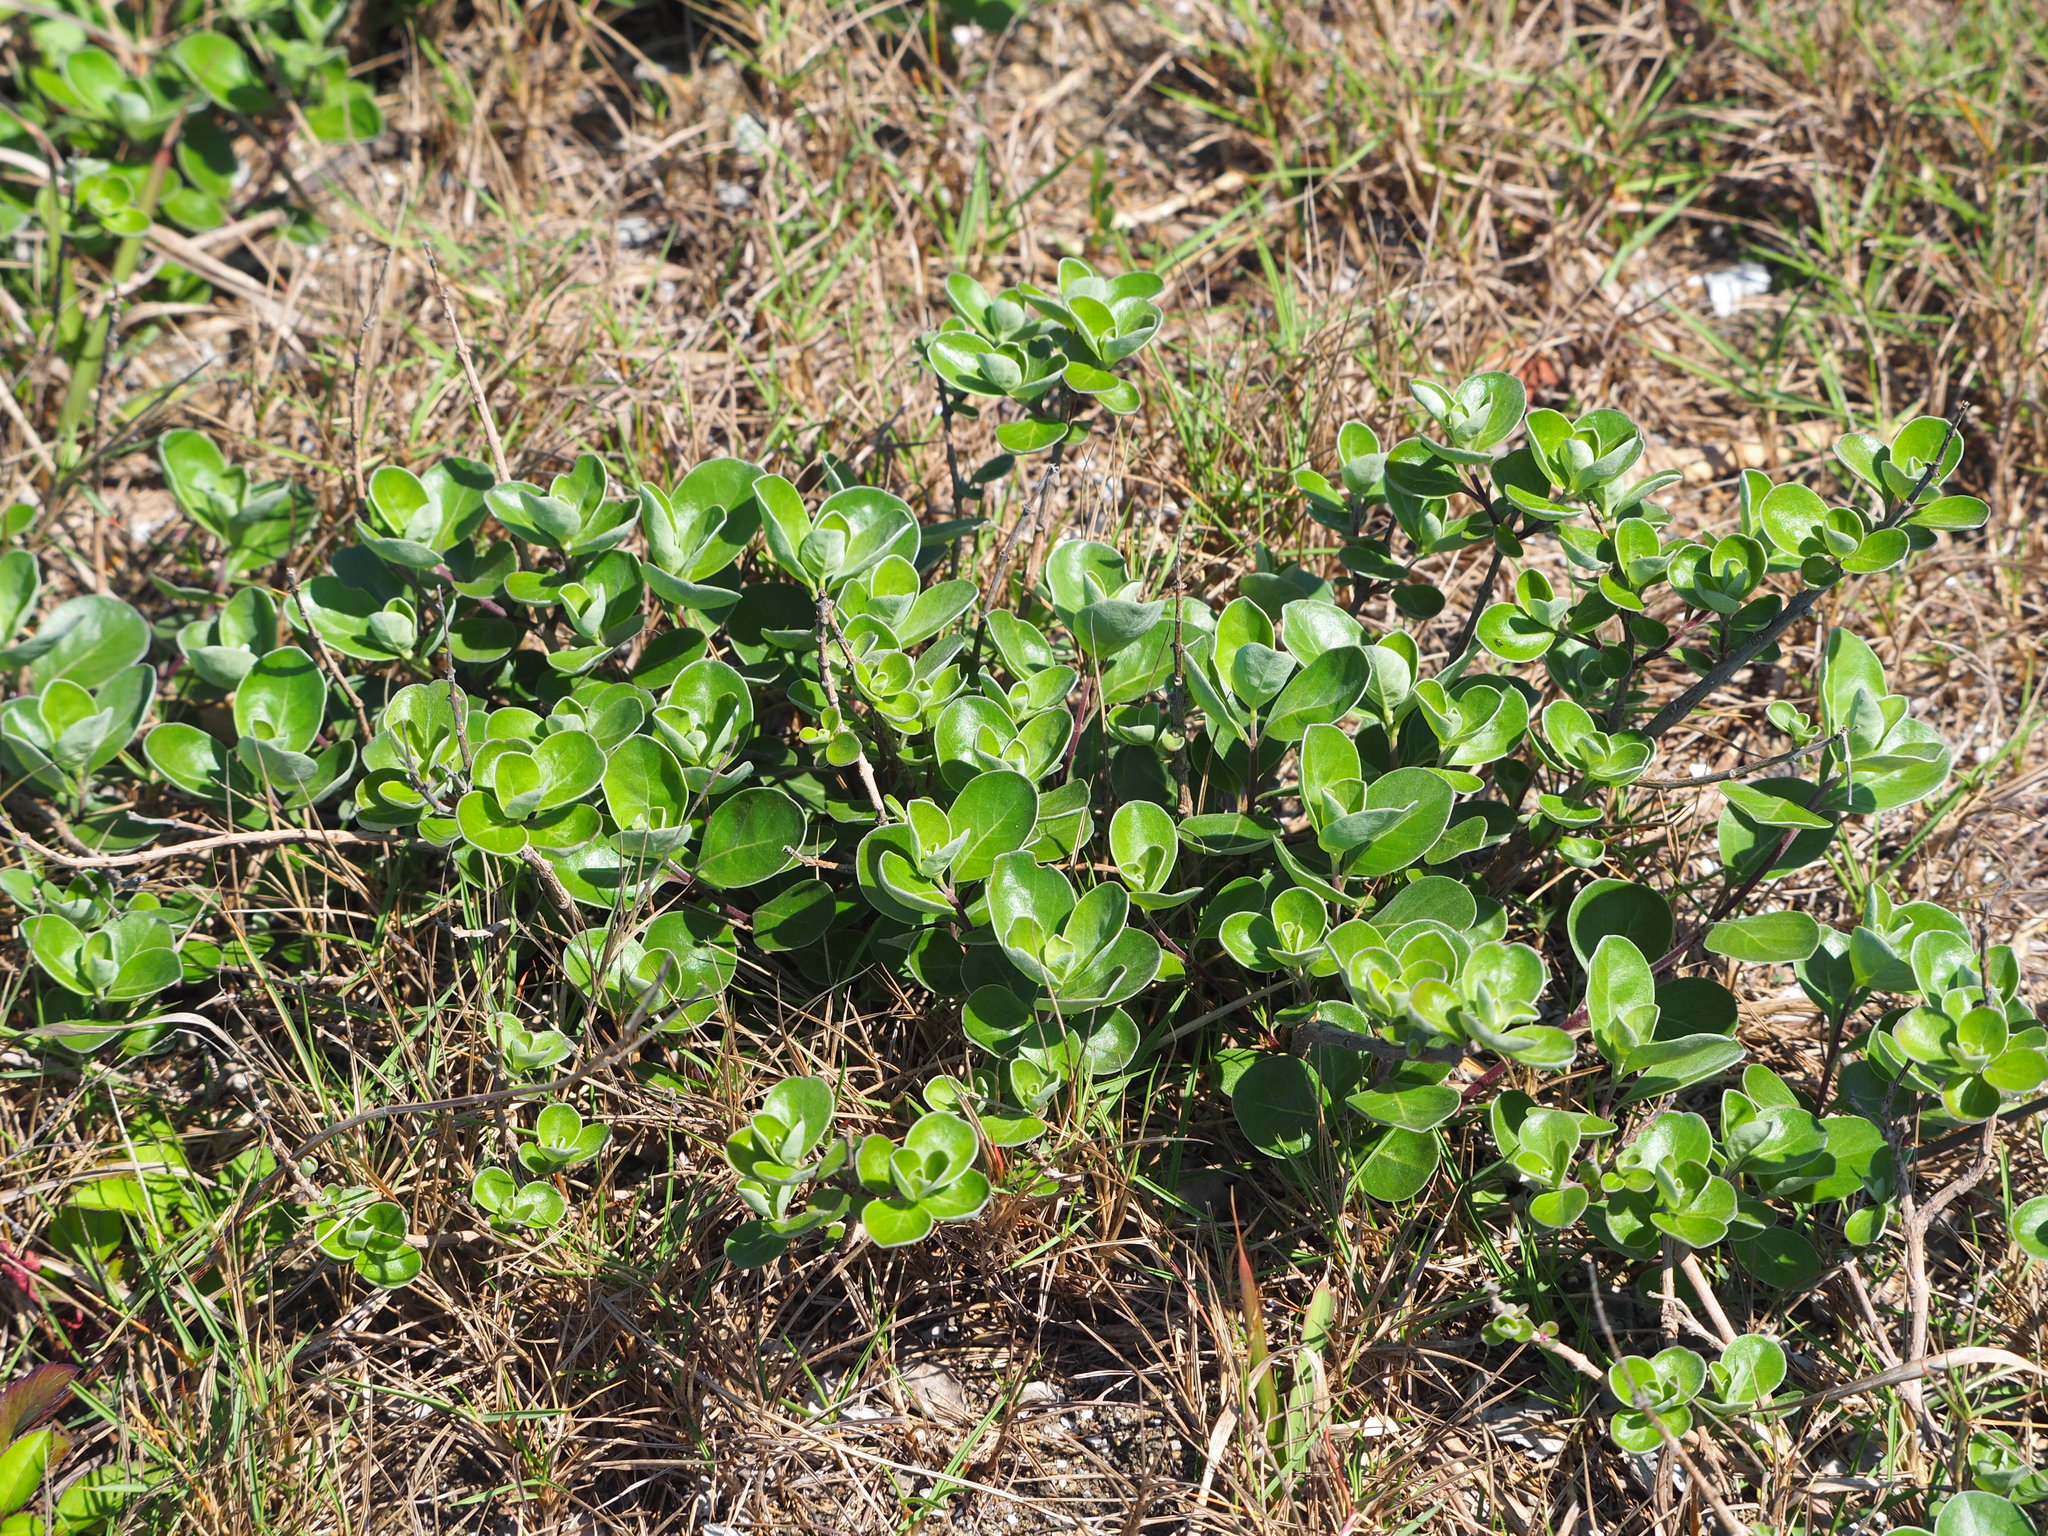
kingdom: Plantae
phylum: Tracheophyta
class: Magnoliopsida
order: Lamiales
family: Lamiaceae
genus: Vitex
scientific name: Vitex rotundifolia
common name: Beach vitex
